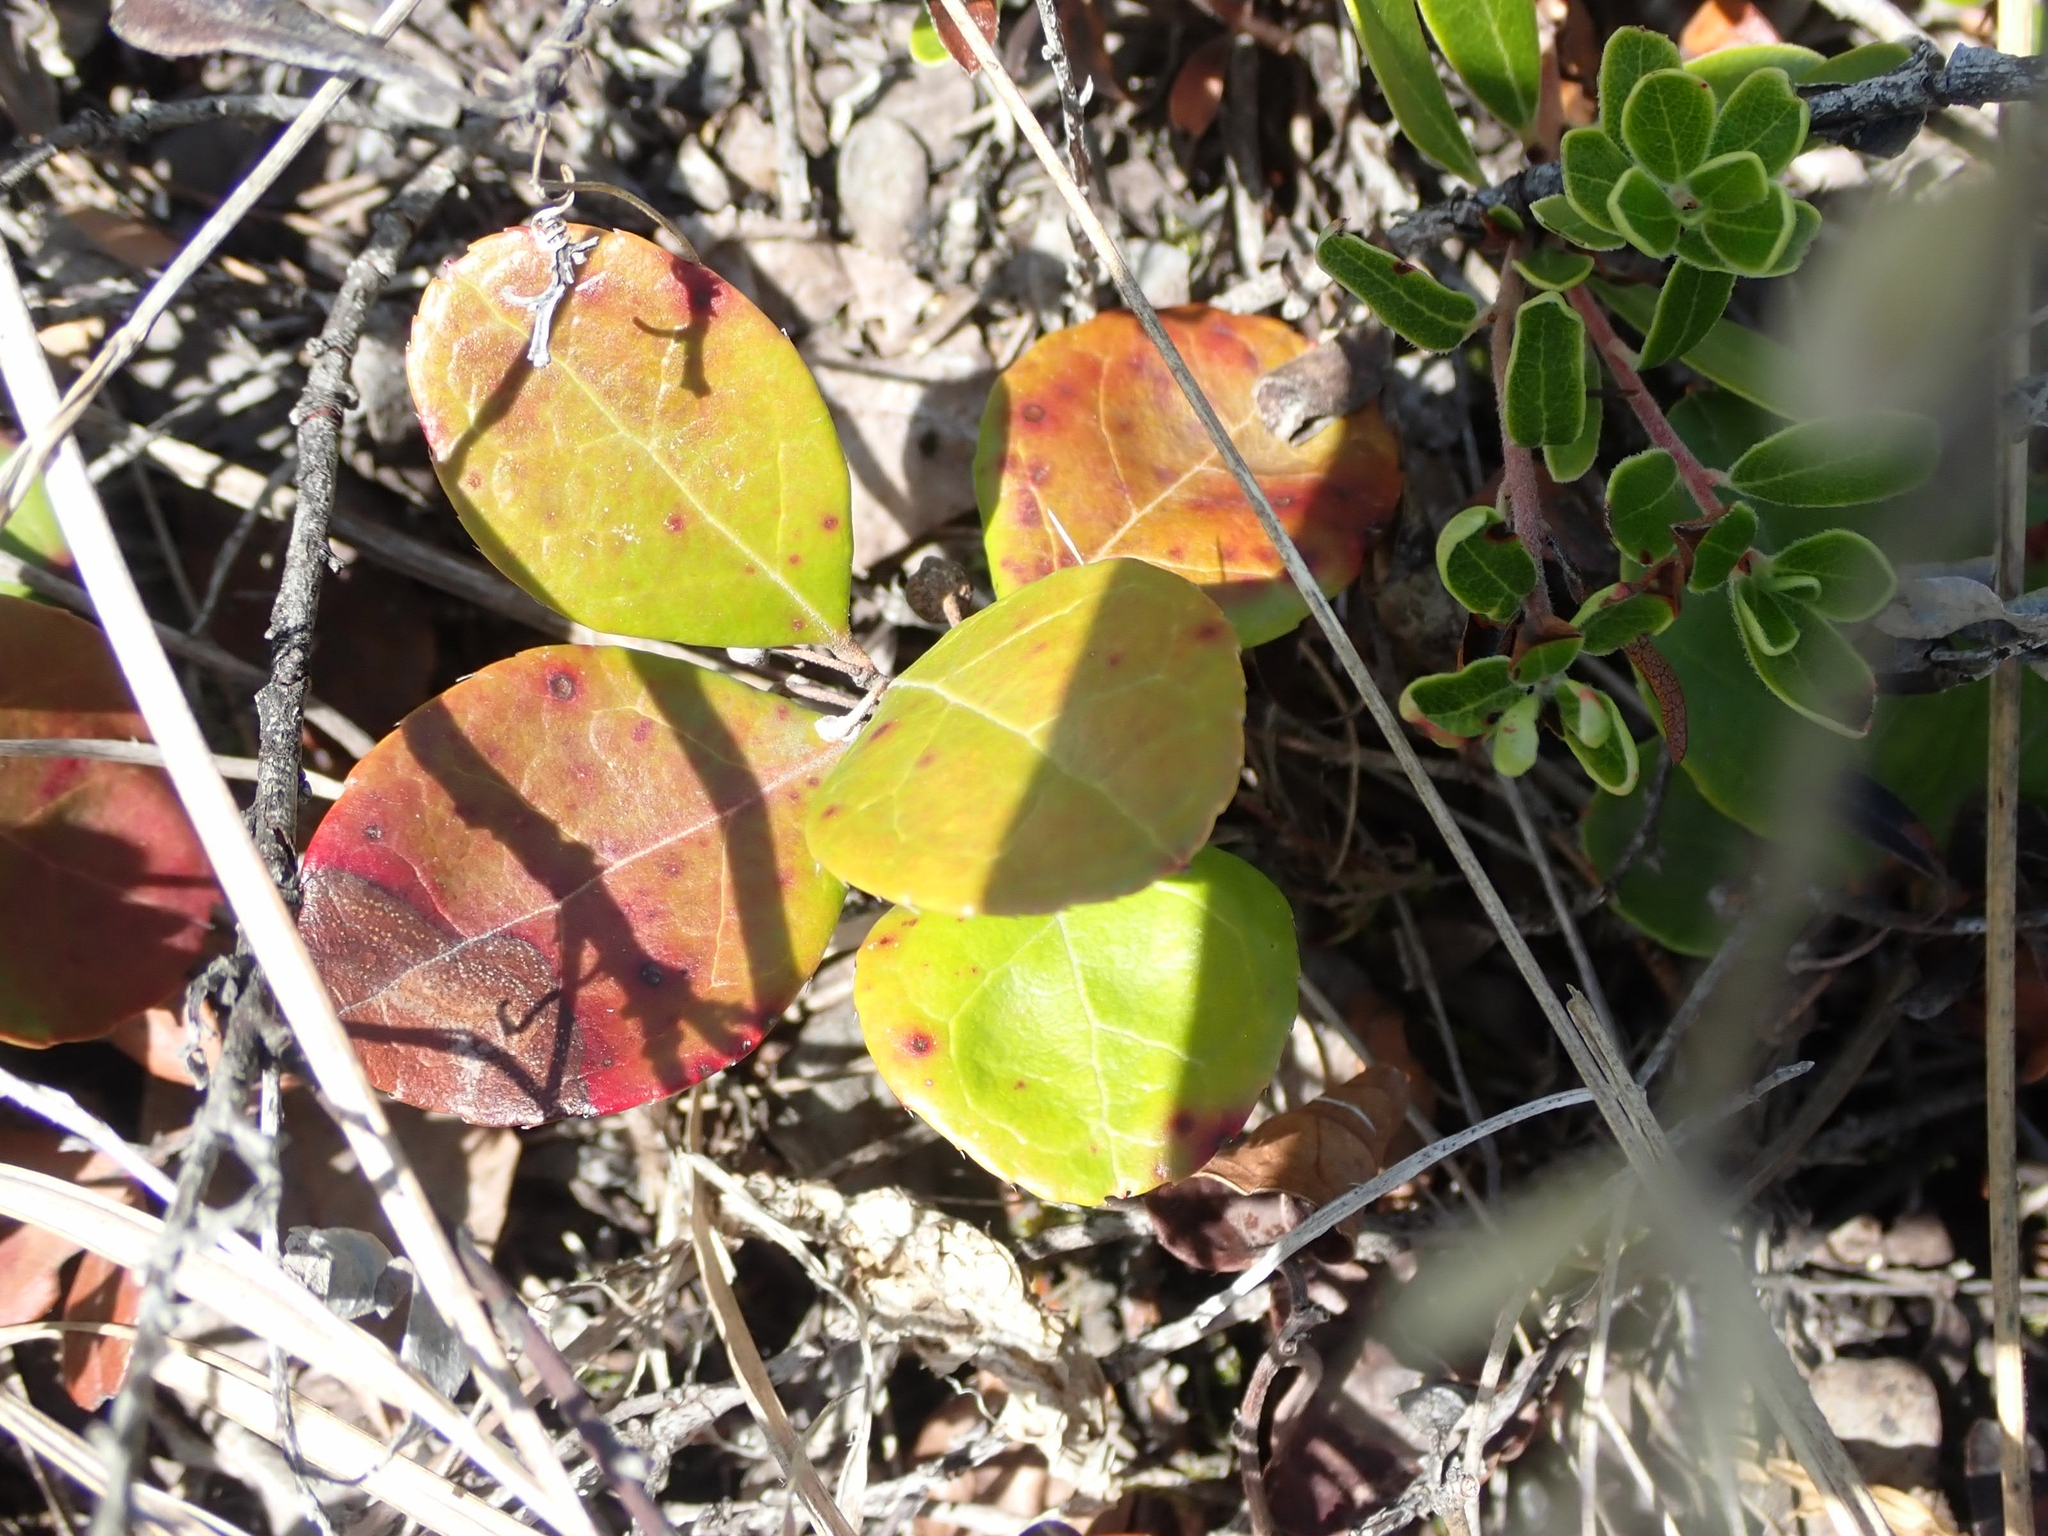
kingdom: Plantae
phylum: Tracheophyta
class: Magnoliopsida
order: Ericales
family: Ericaceae
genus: Gaultheria
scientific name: Gaultheria procumbens
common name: Checkerberry
